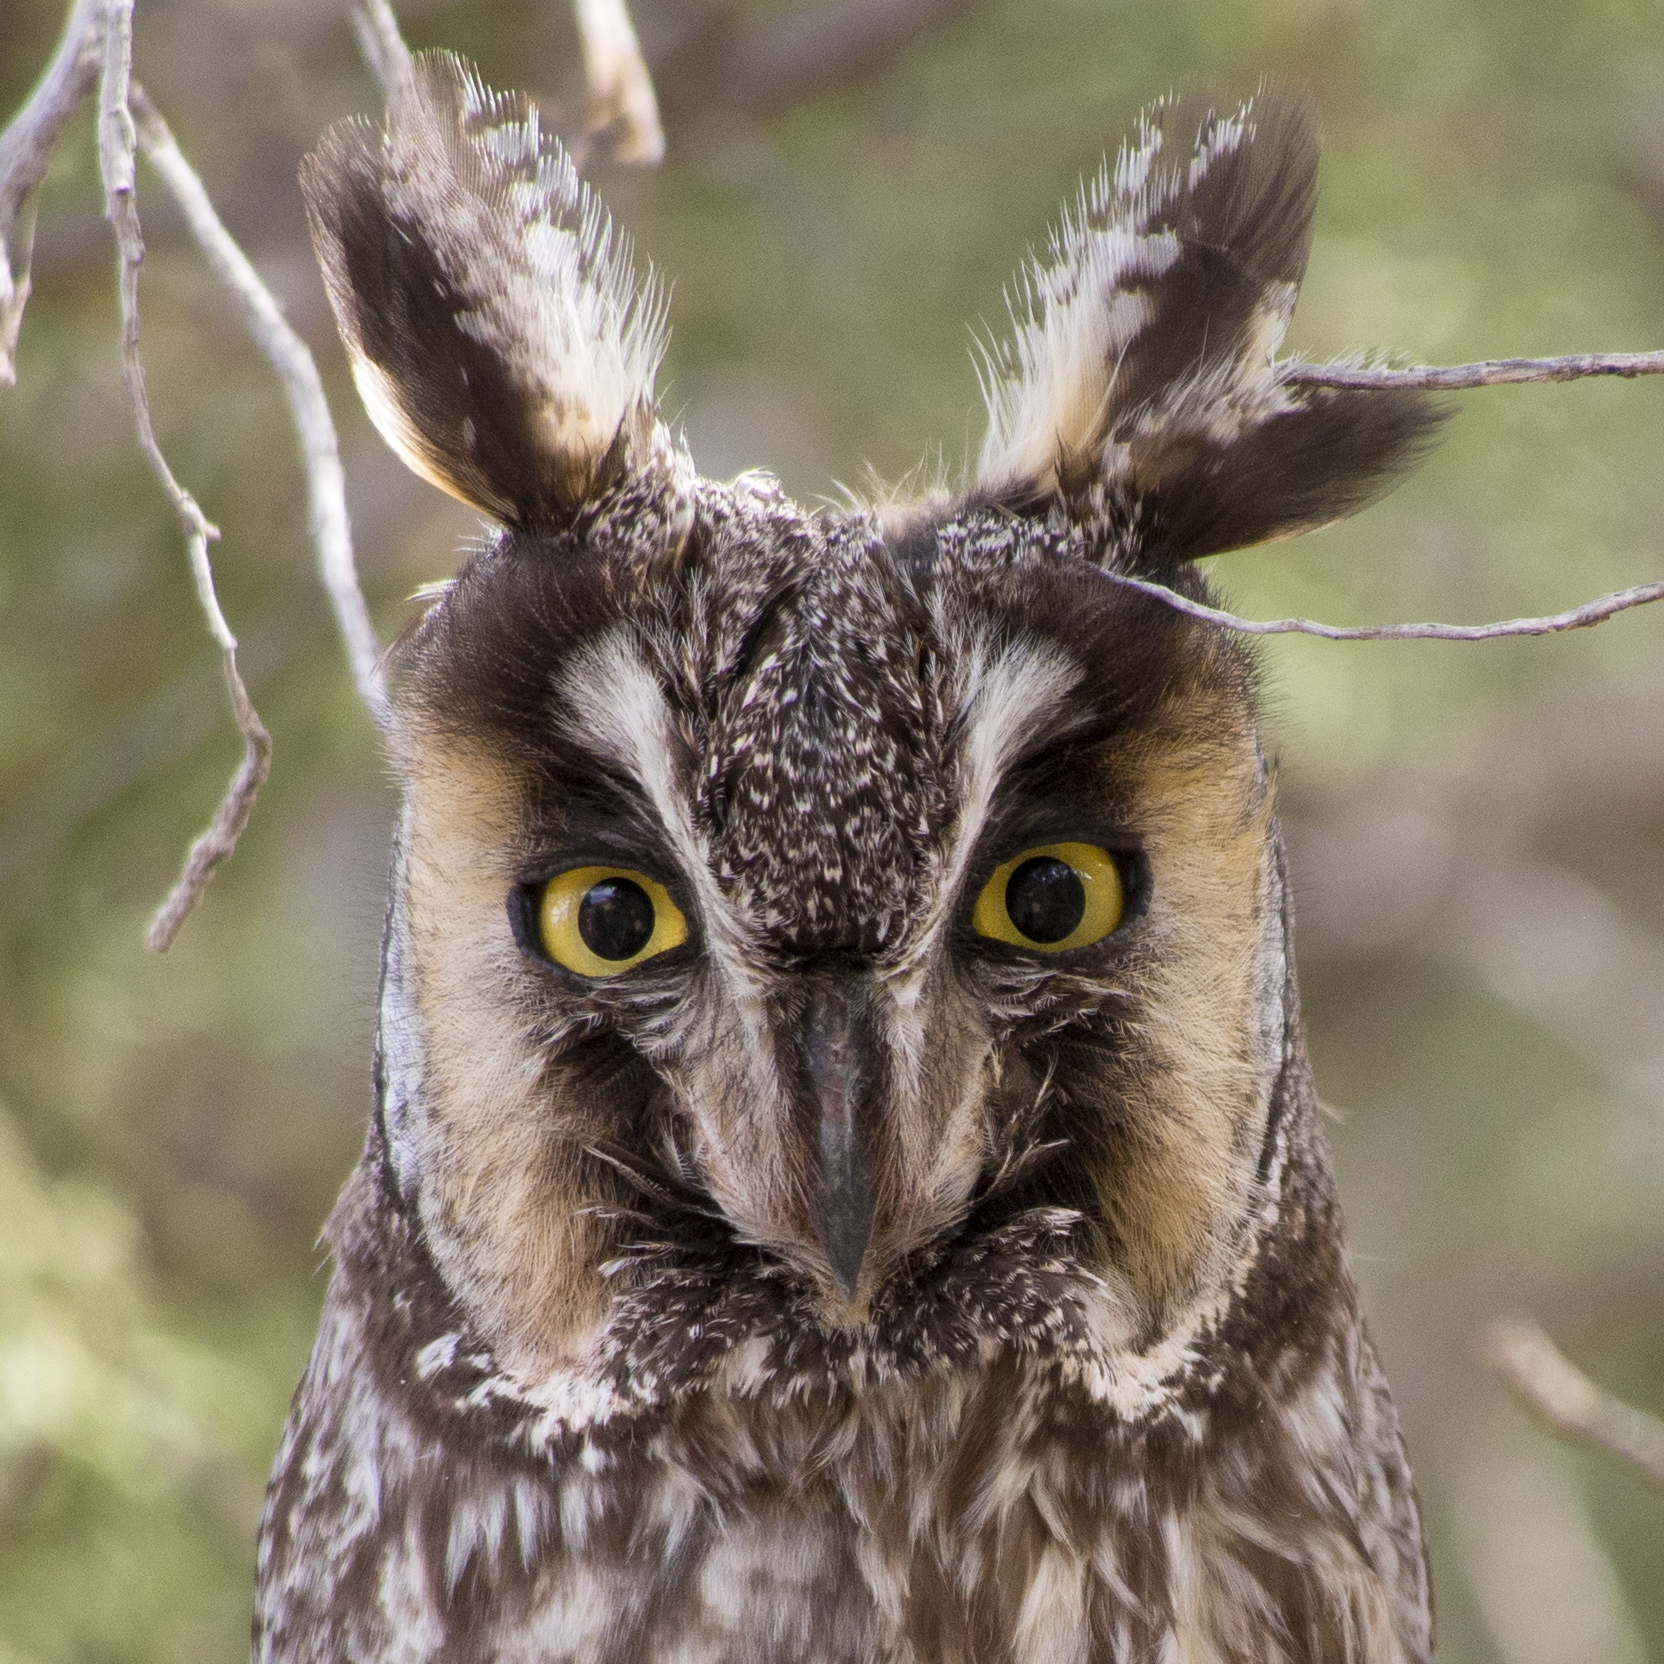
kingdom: Animalia
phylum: Chordata
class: Aves
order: Strigiformes
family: Strigidae
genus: Asio
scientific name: Asio otus
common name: Long-eared owl
